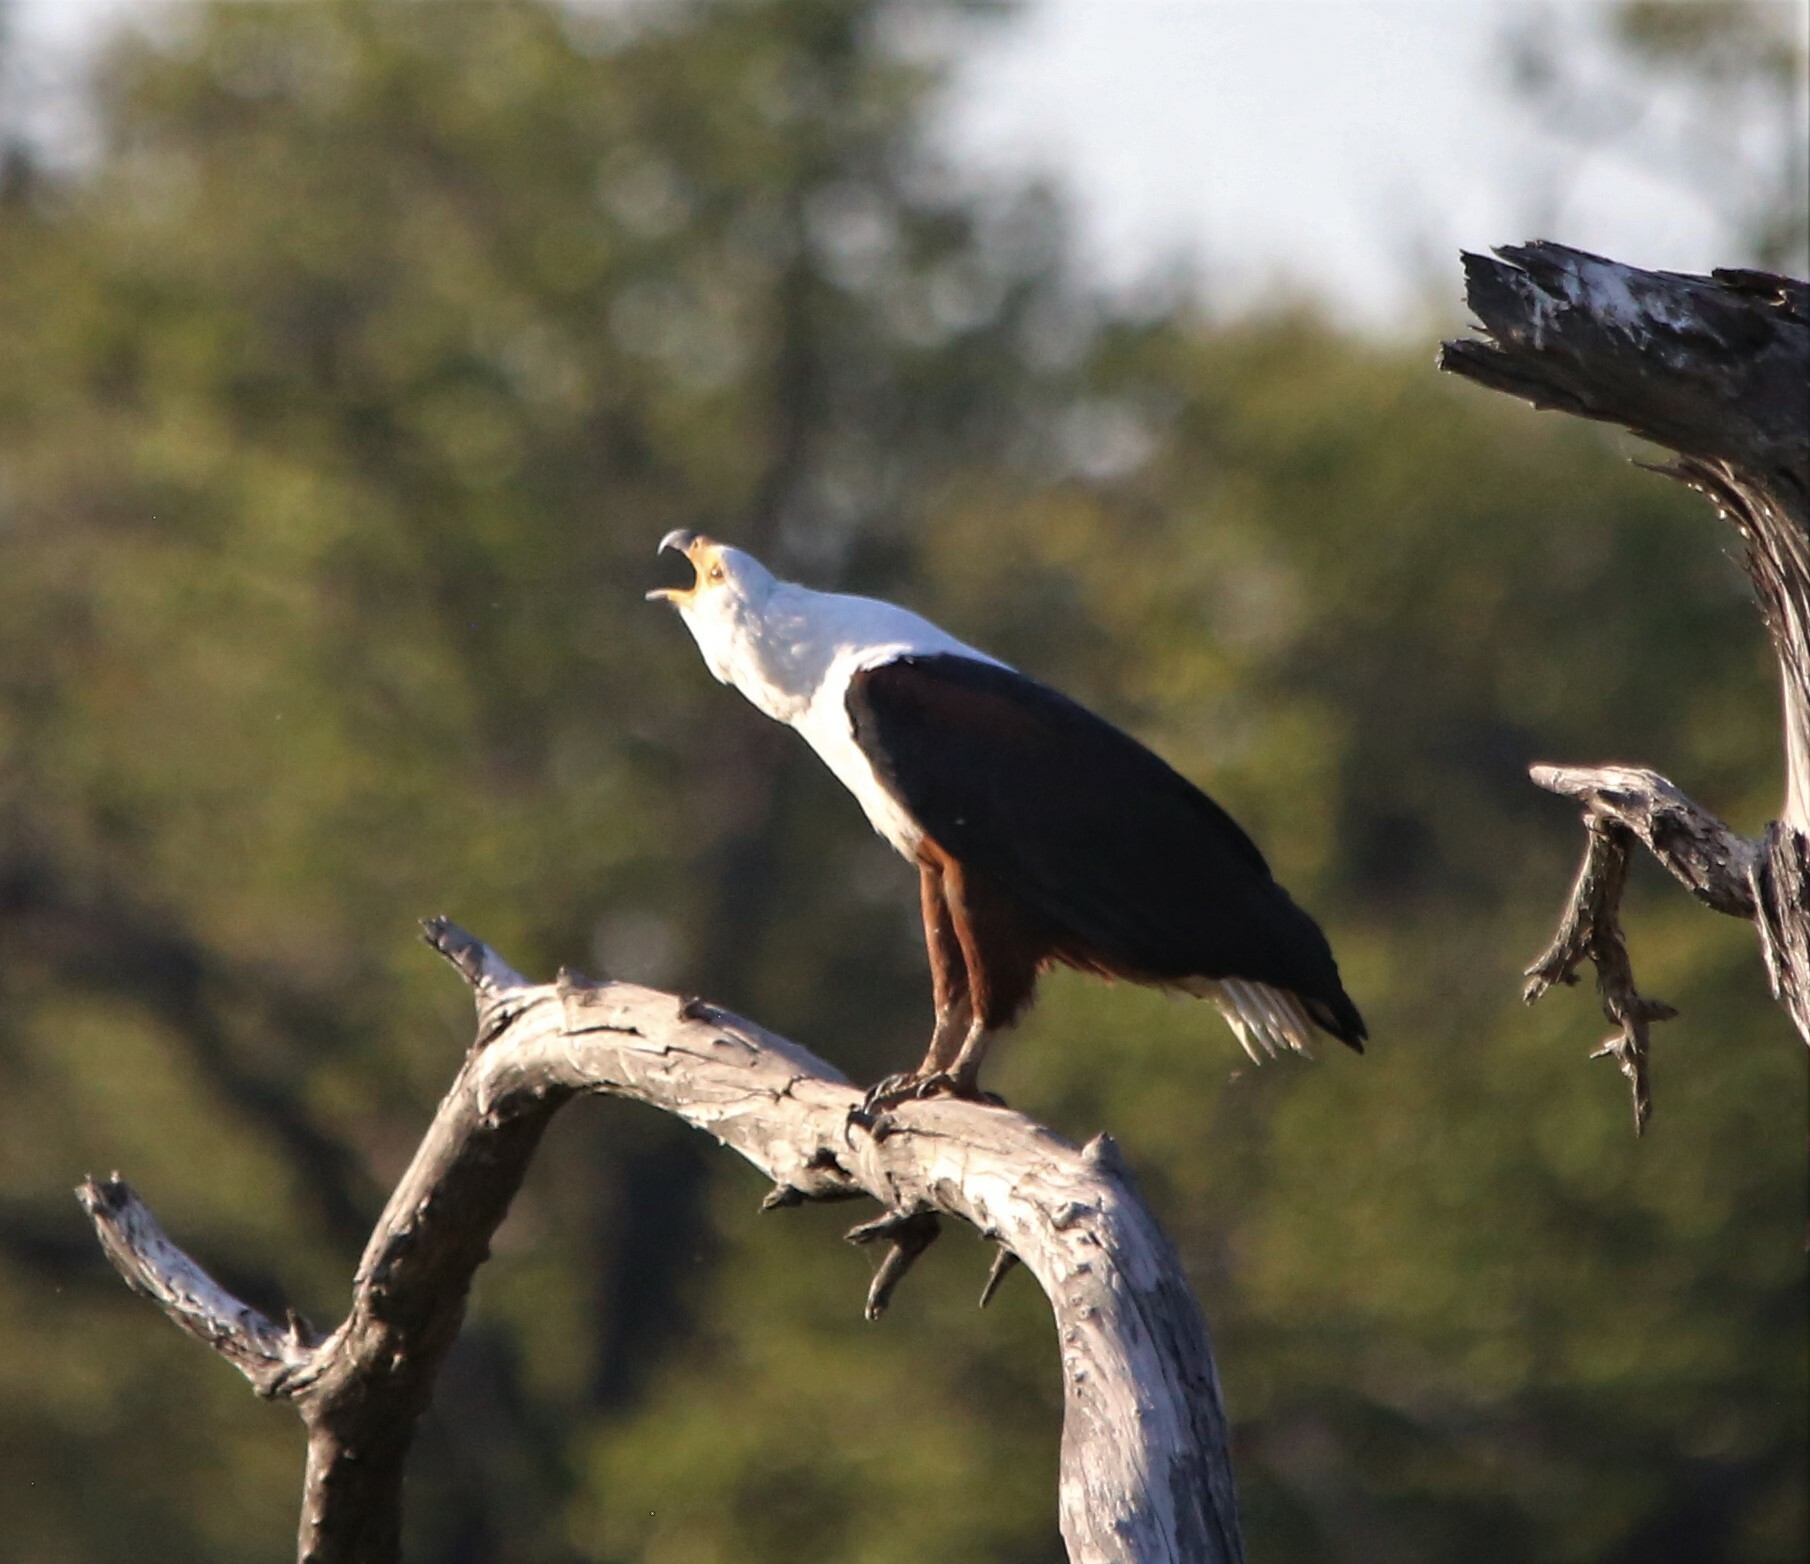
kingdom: Animalia
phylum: Chordata
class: Aves
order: Accipitriformes
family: Accipitridae
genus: Haliaeetus
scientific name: Haliaeetus vocifer
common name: African fish eagle
